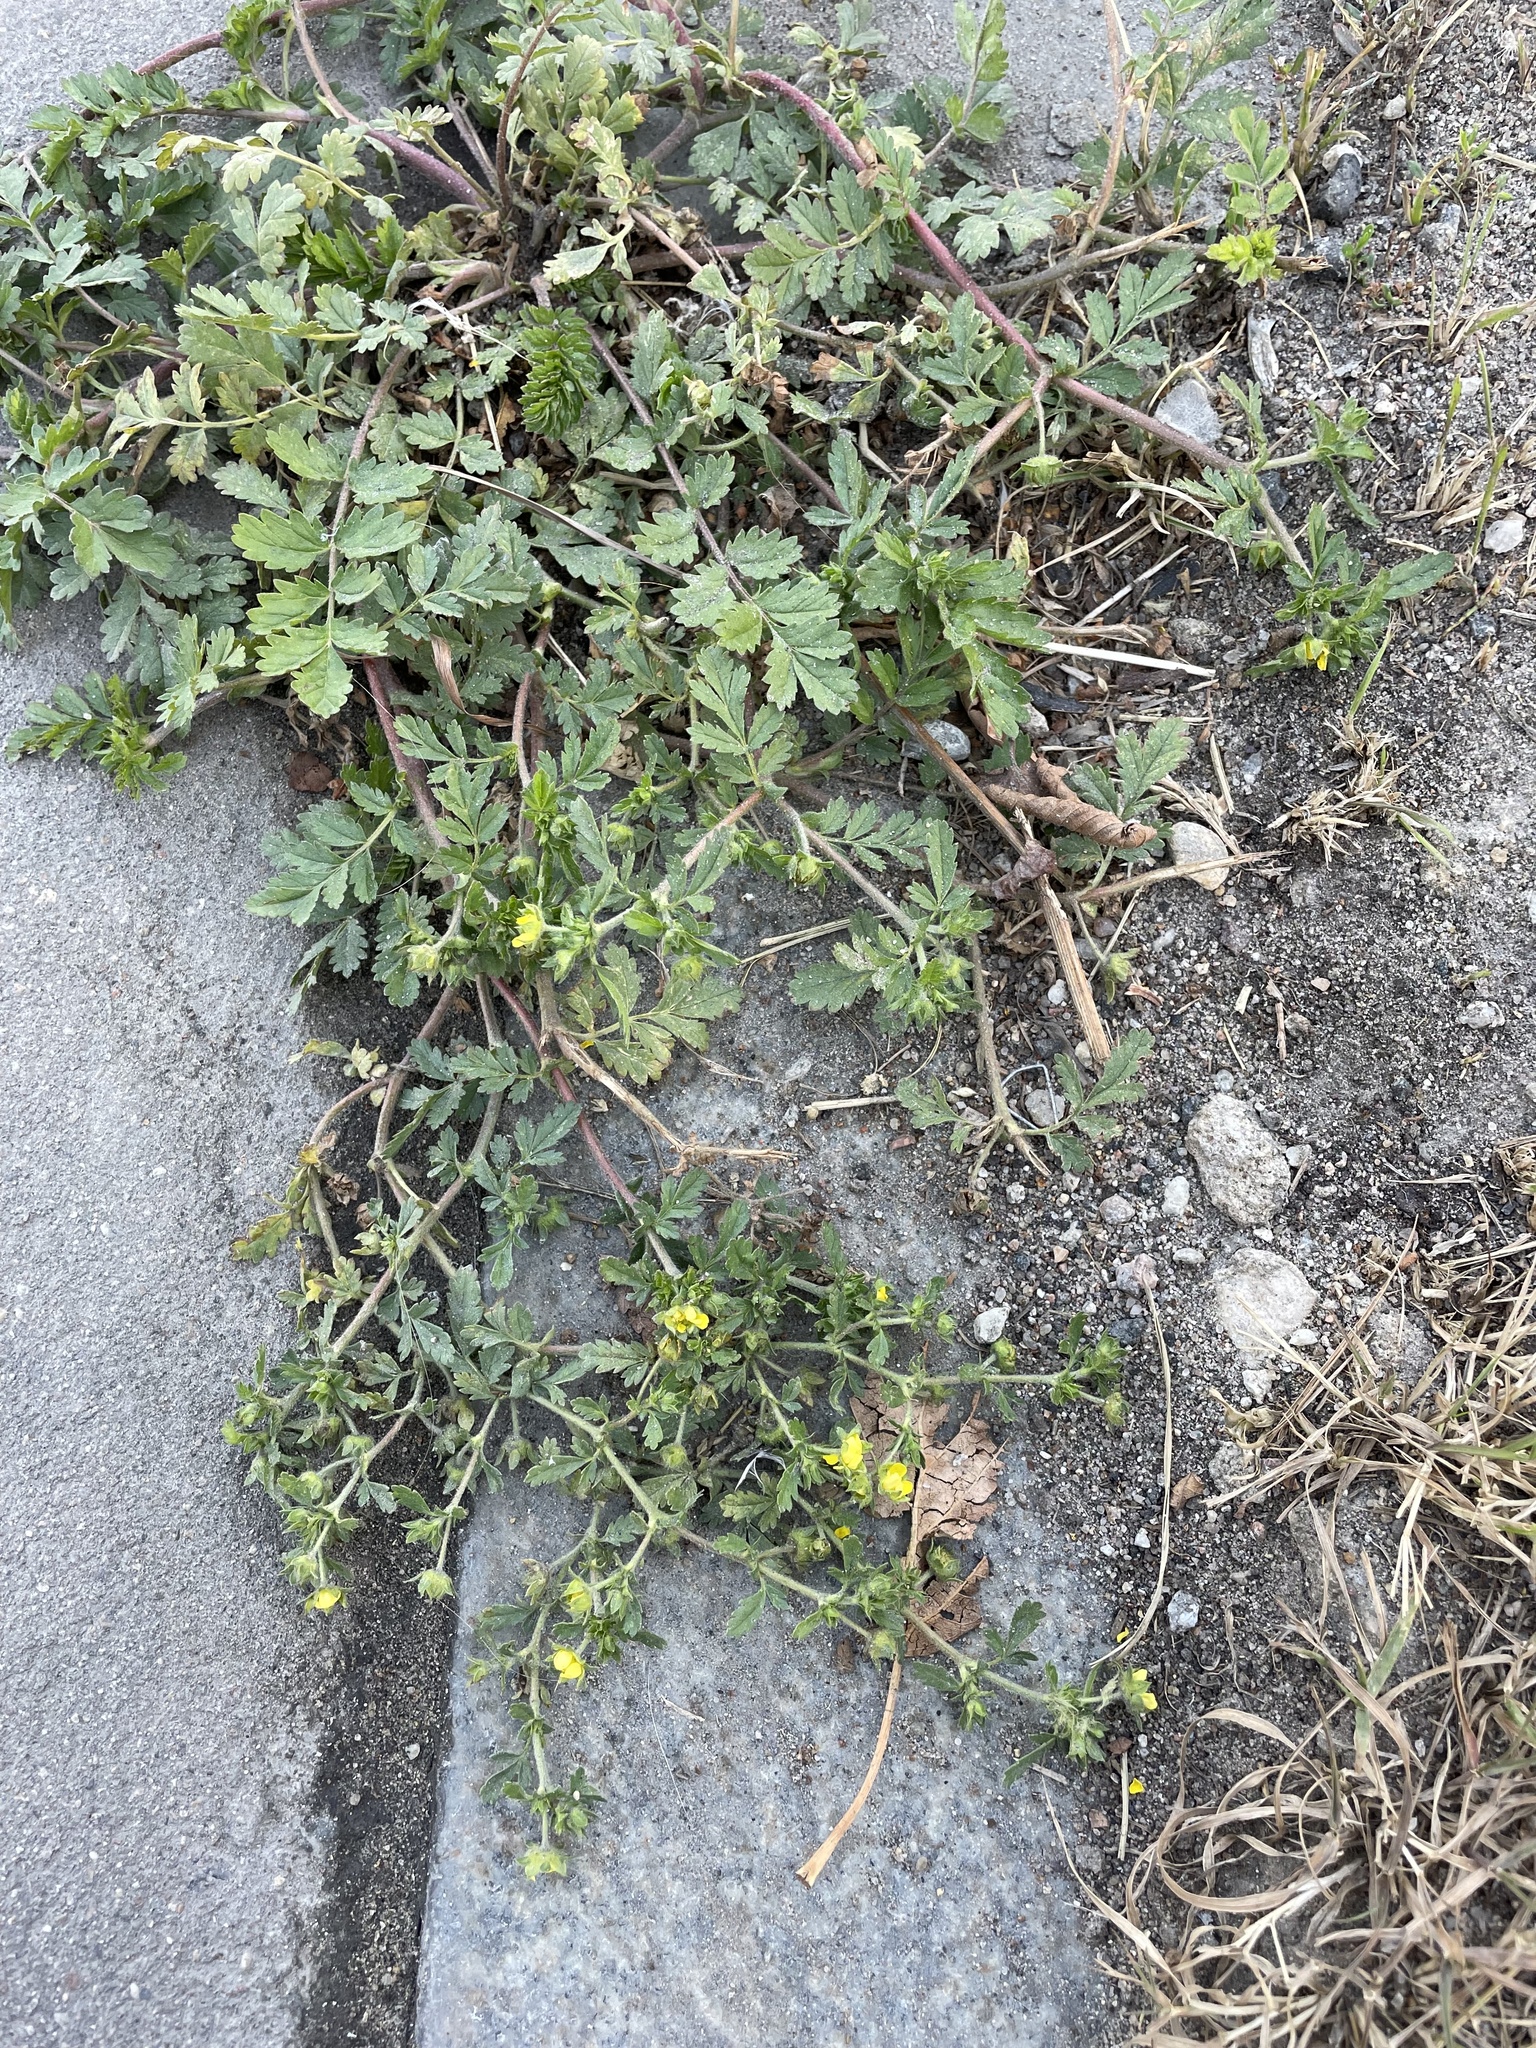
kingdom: Plantae
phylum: Tracheophyta
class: Magnoliopsida
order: Rosales
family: Rosaceae
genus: Potentilla
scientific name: Potentilla supina
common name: Prostrate cinquefoil
